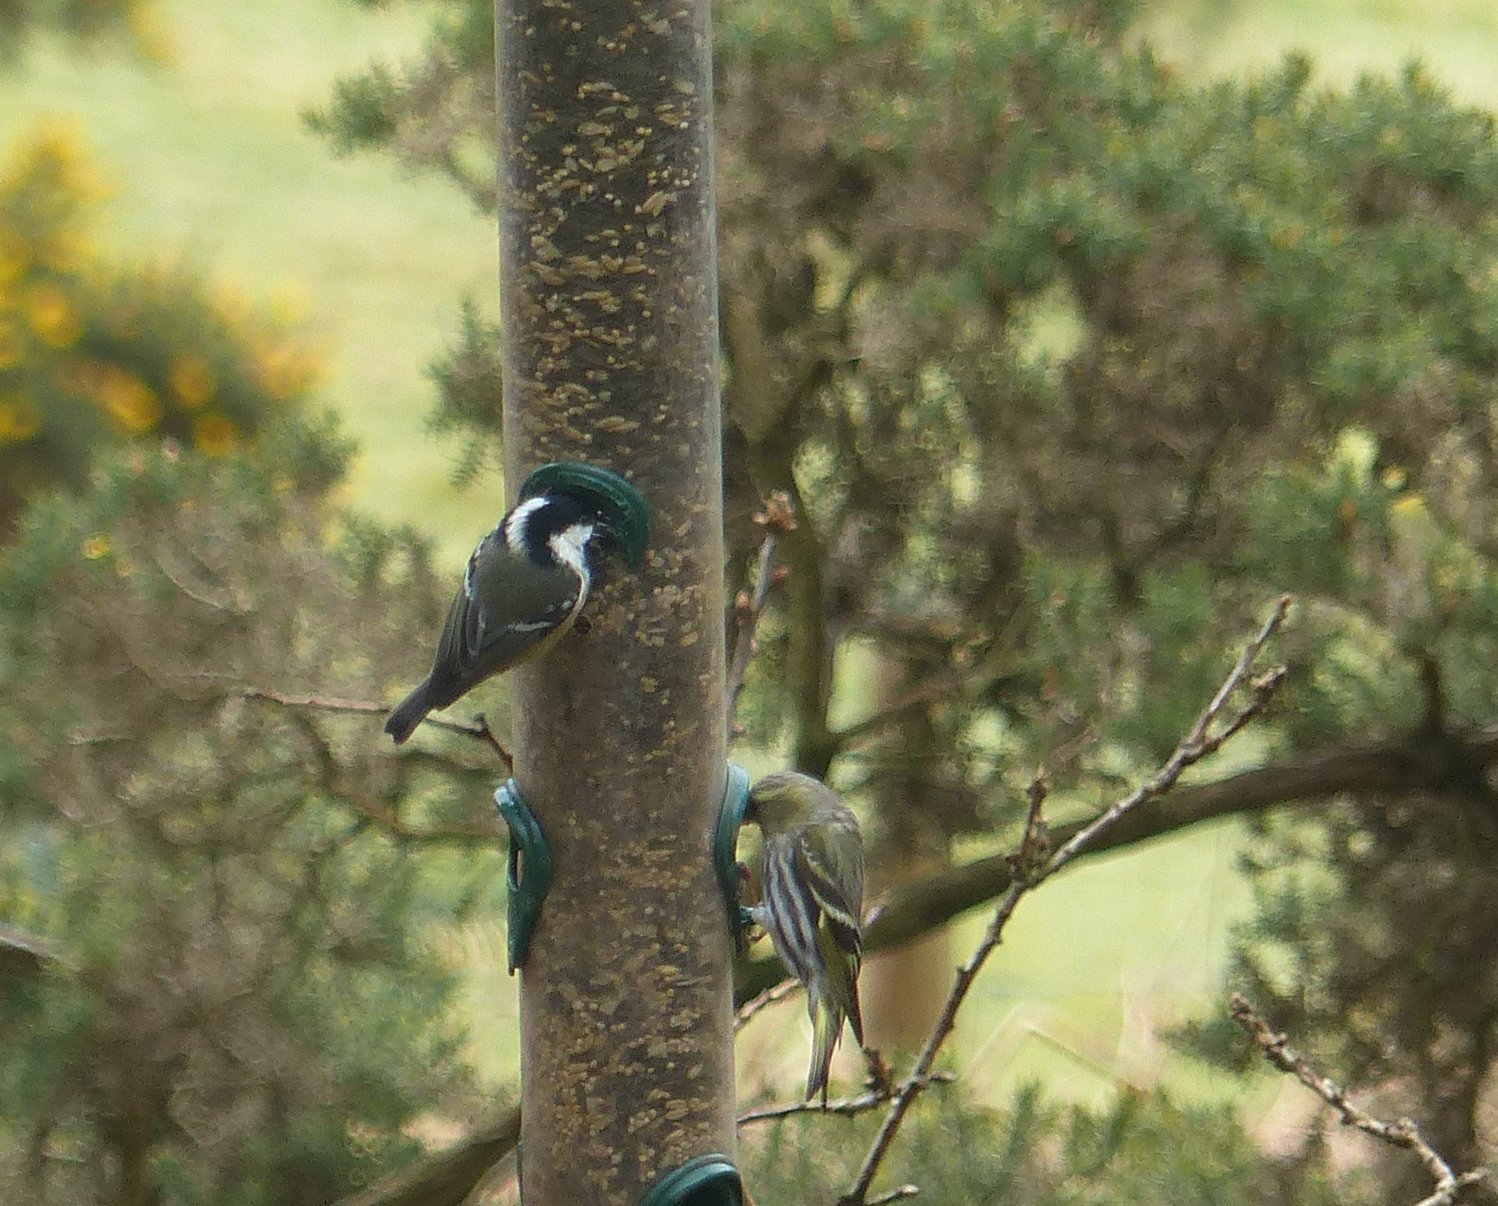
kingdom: Animalia
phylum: Chordata
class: Aves
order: Passeriformes
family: Paridae
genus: Periparus
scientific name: Periparus ater
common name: Coal tit
